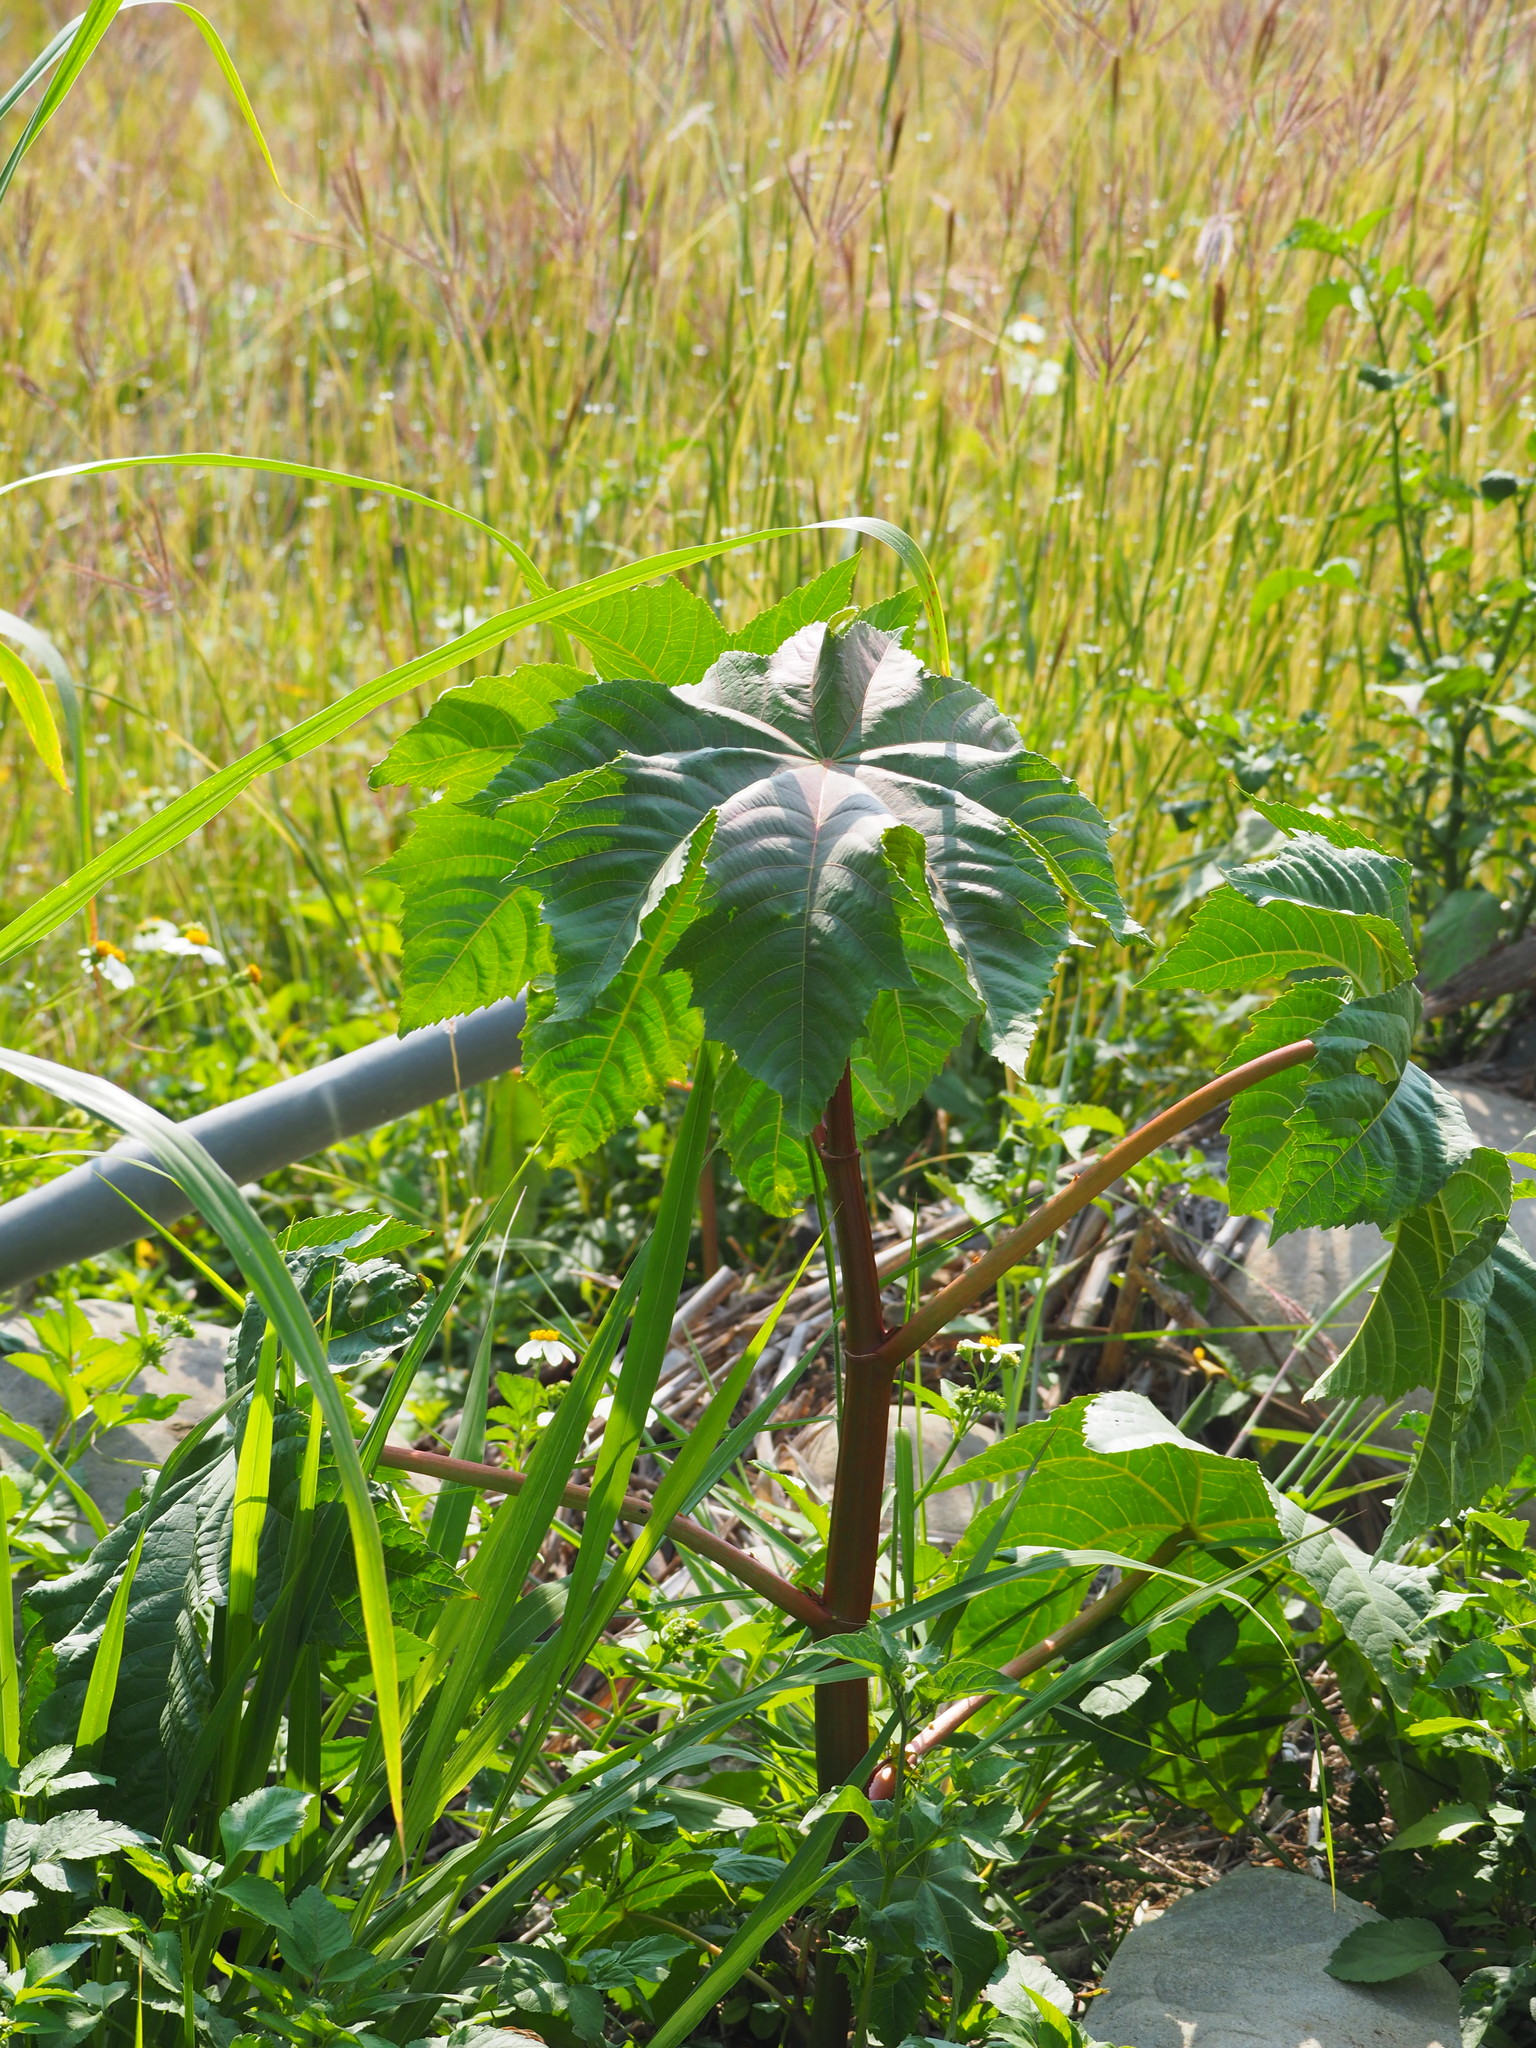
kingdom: Plantae
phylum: Tracheophyta
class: Magnoliopsida
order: Malpighiales
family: Euphorbiaceae
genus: Ricinus
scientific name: Ricinus communis
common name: Castor-oil-plant
